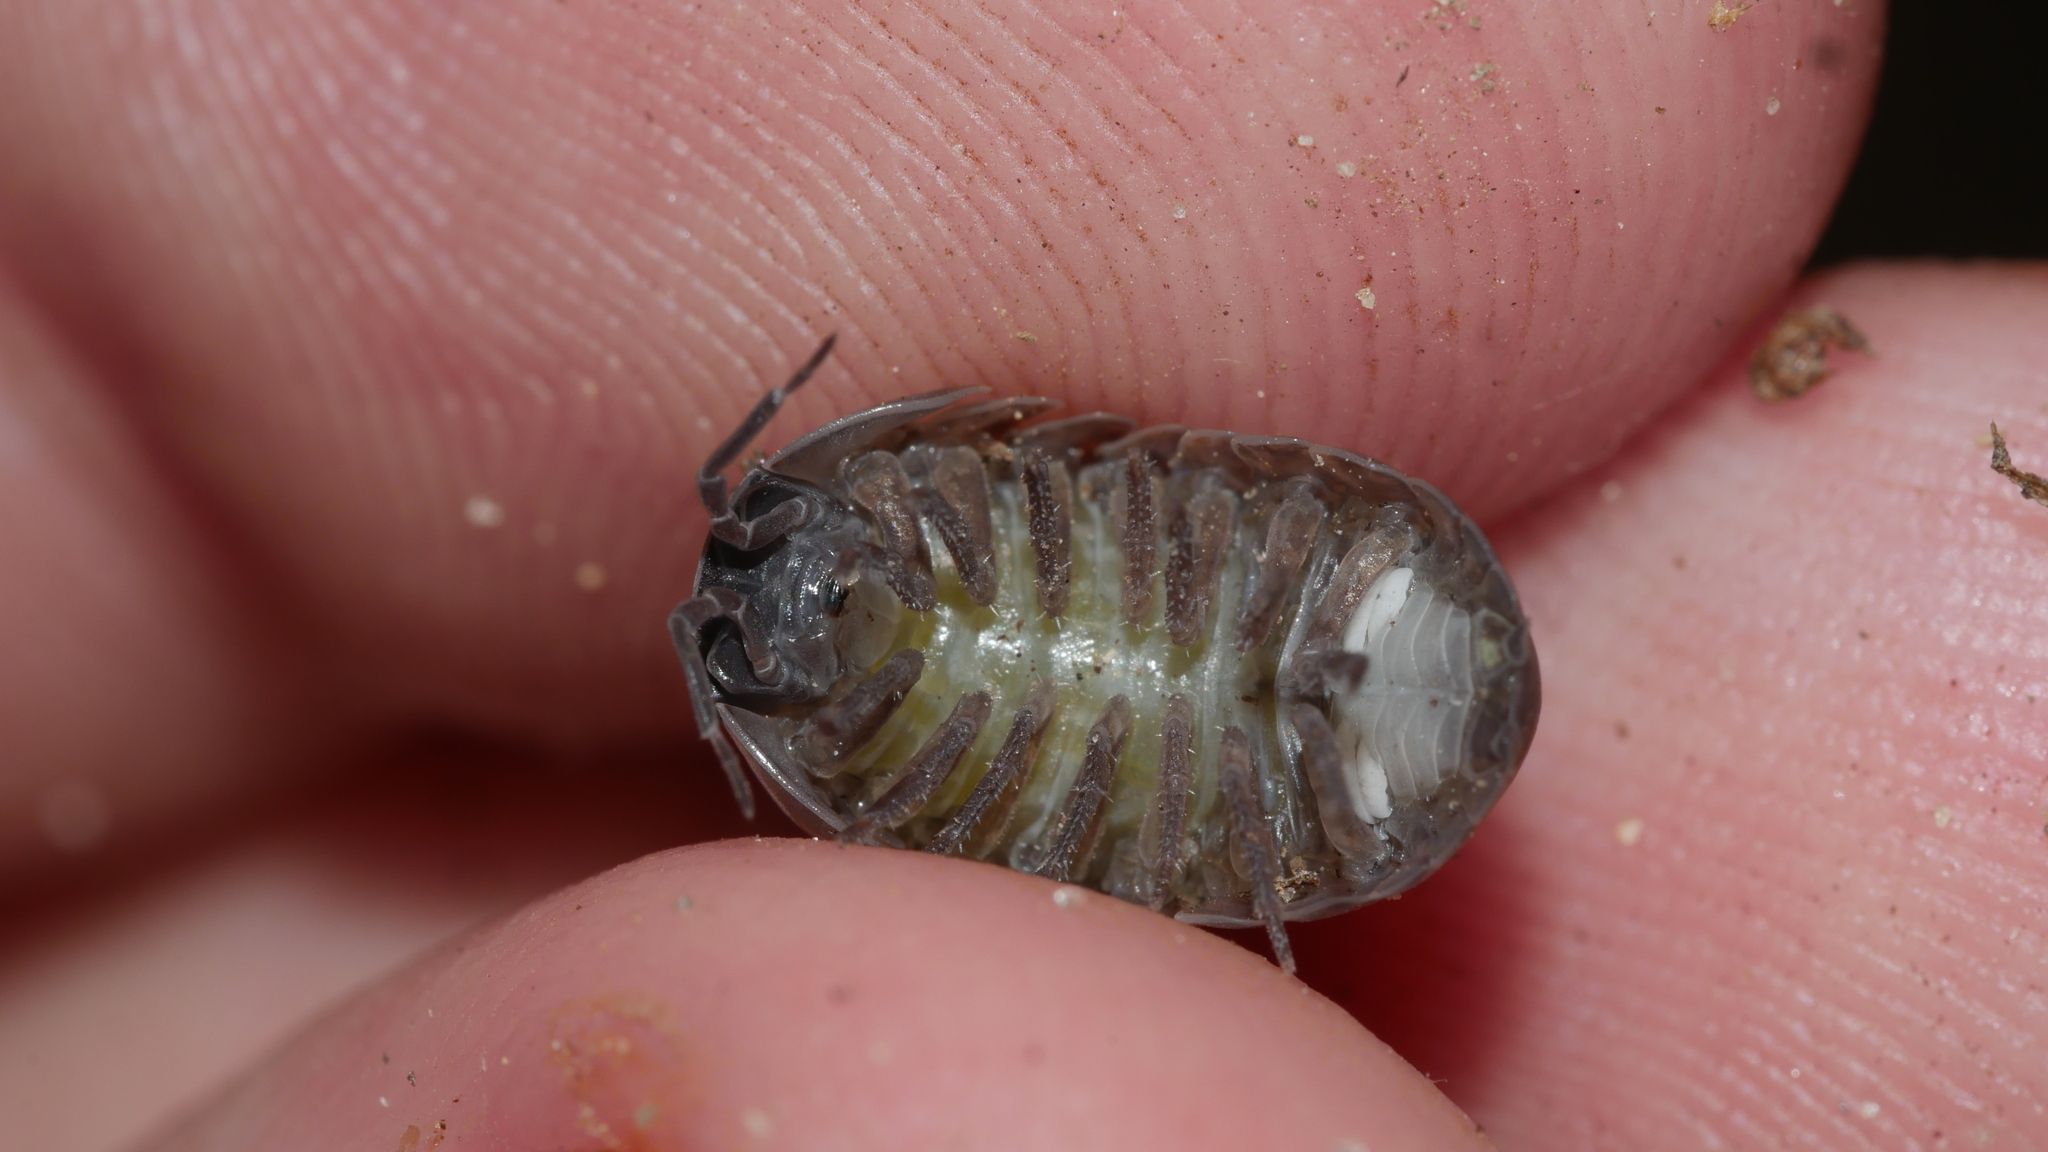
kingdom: Animalia
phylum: Arthropoda
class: Malacostraca
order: Isopoda
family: Armadillidiidae
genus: Armadillidium
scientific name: Armadillidium vulgare
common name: Common pill woodlouse
